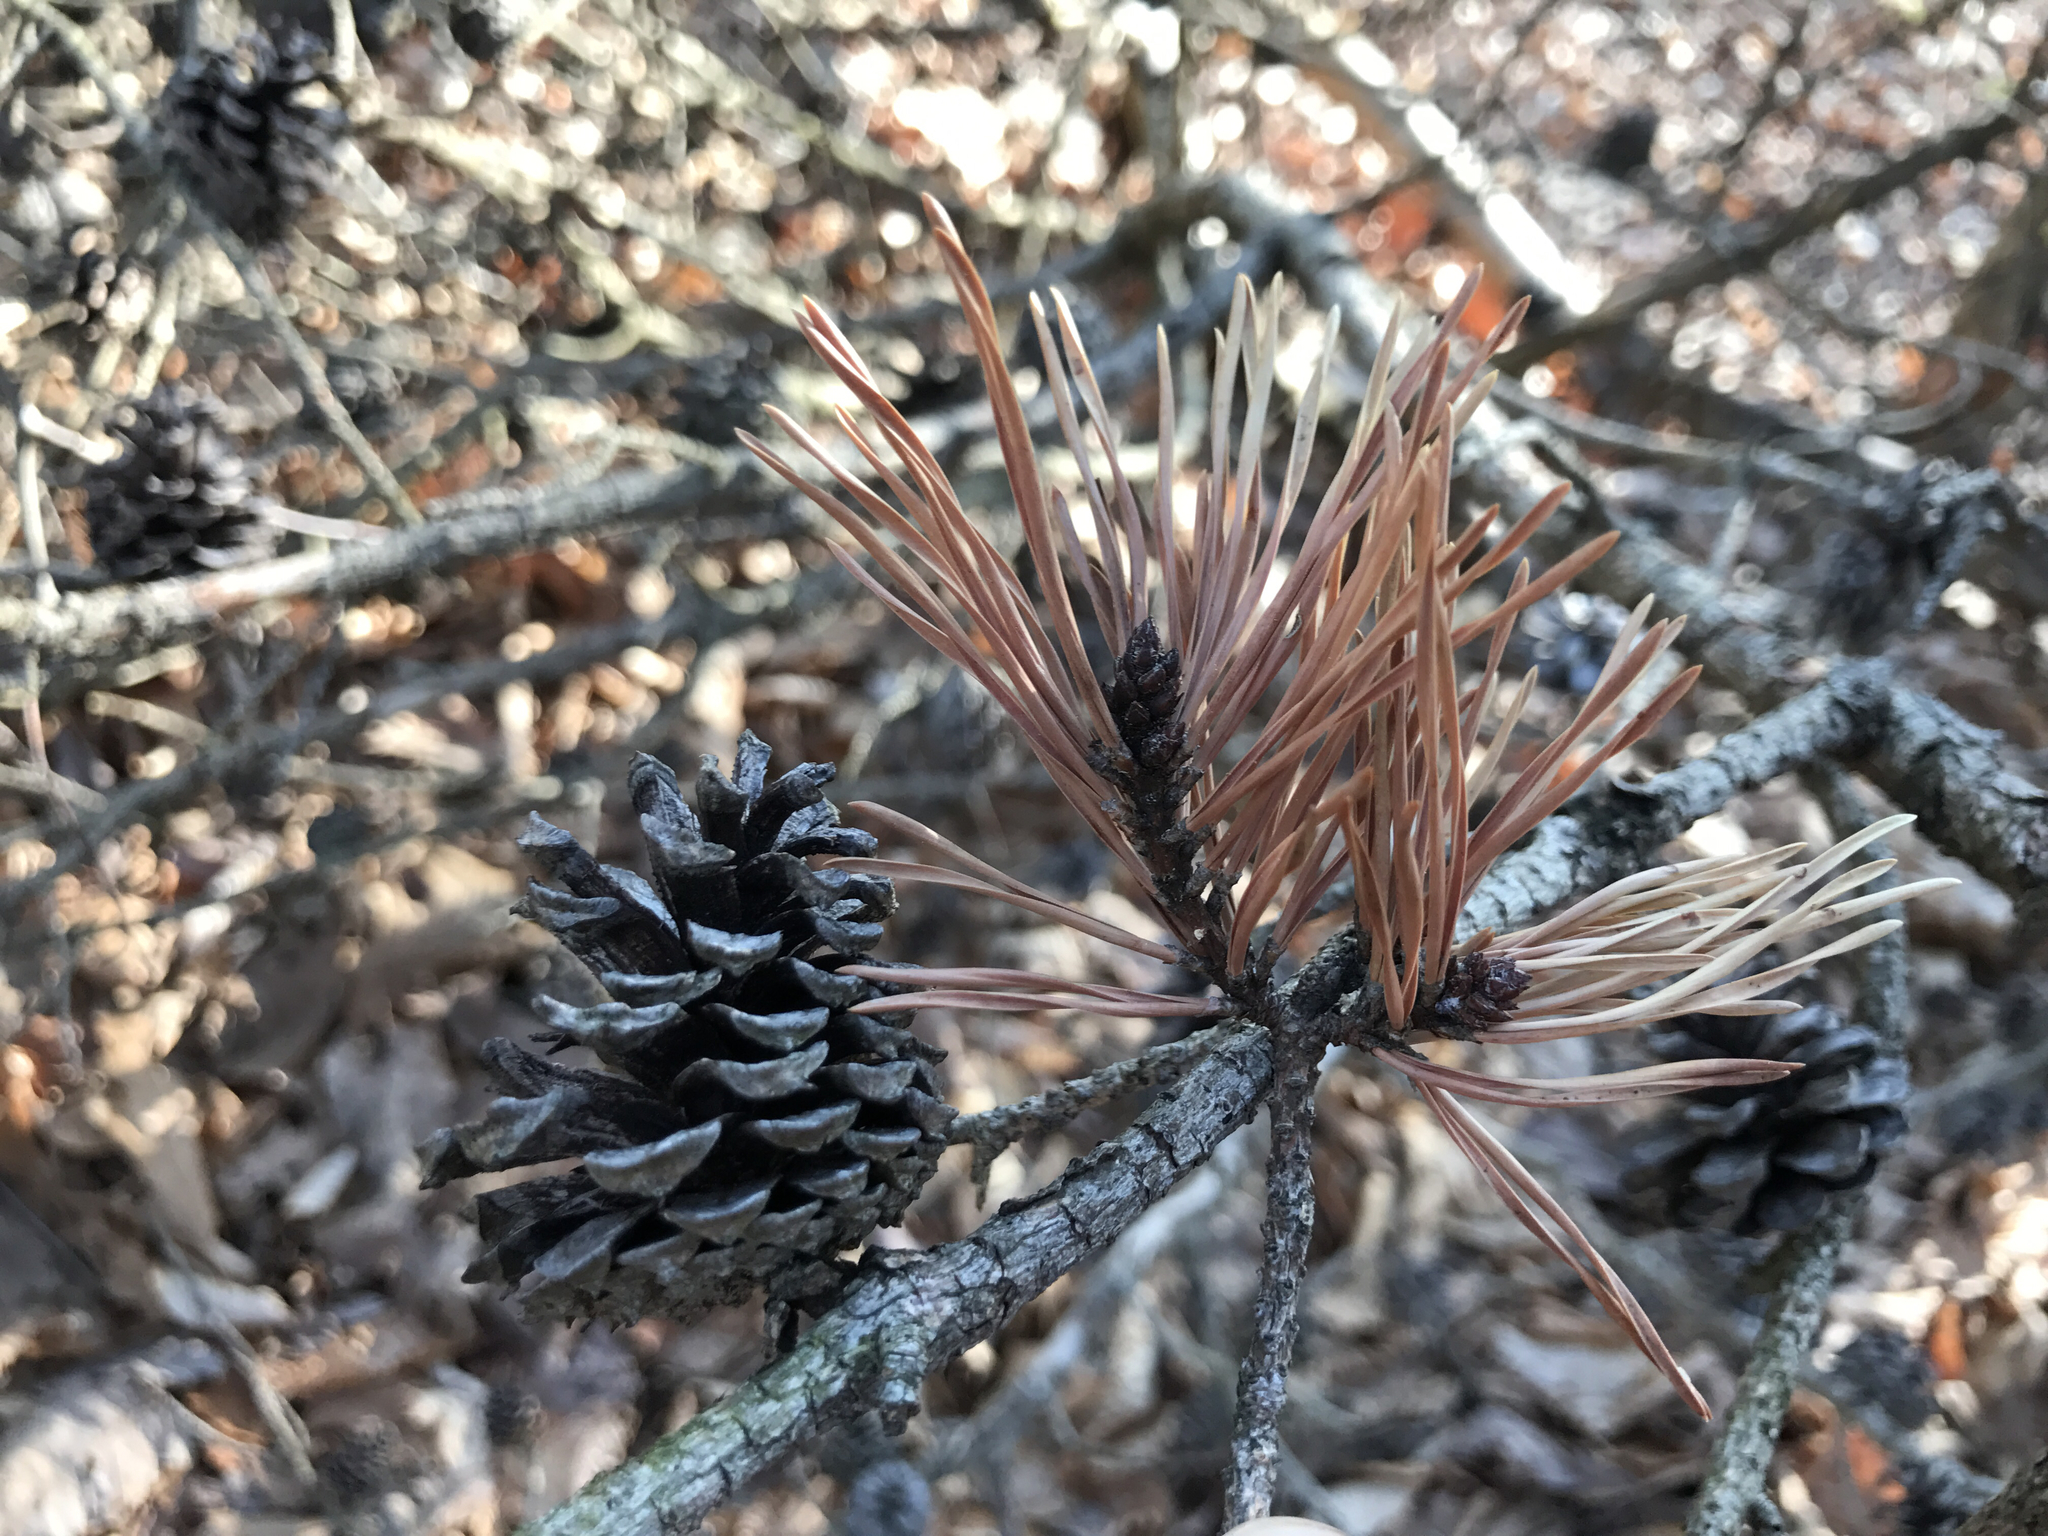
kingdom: Plantae
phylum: Tracheophyta
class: Pinopsida
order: Pinales
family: Pinaceae
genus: Pinus
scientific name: Pinus virginiana
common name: Scrub pine
